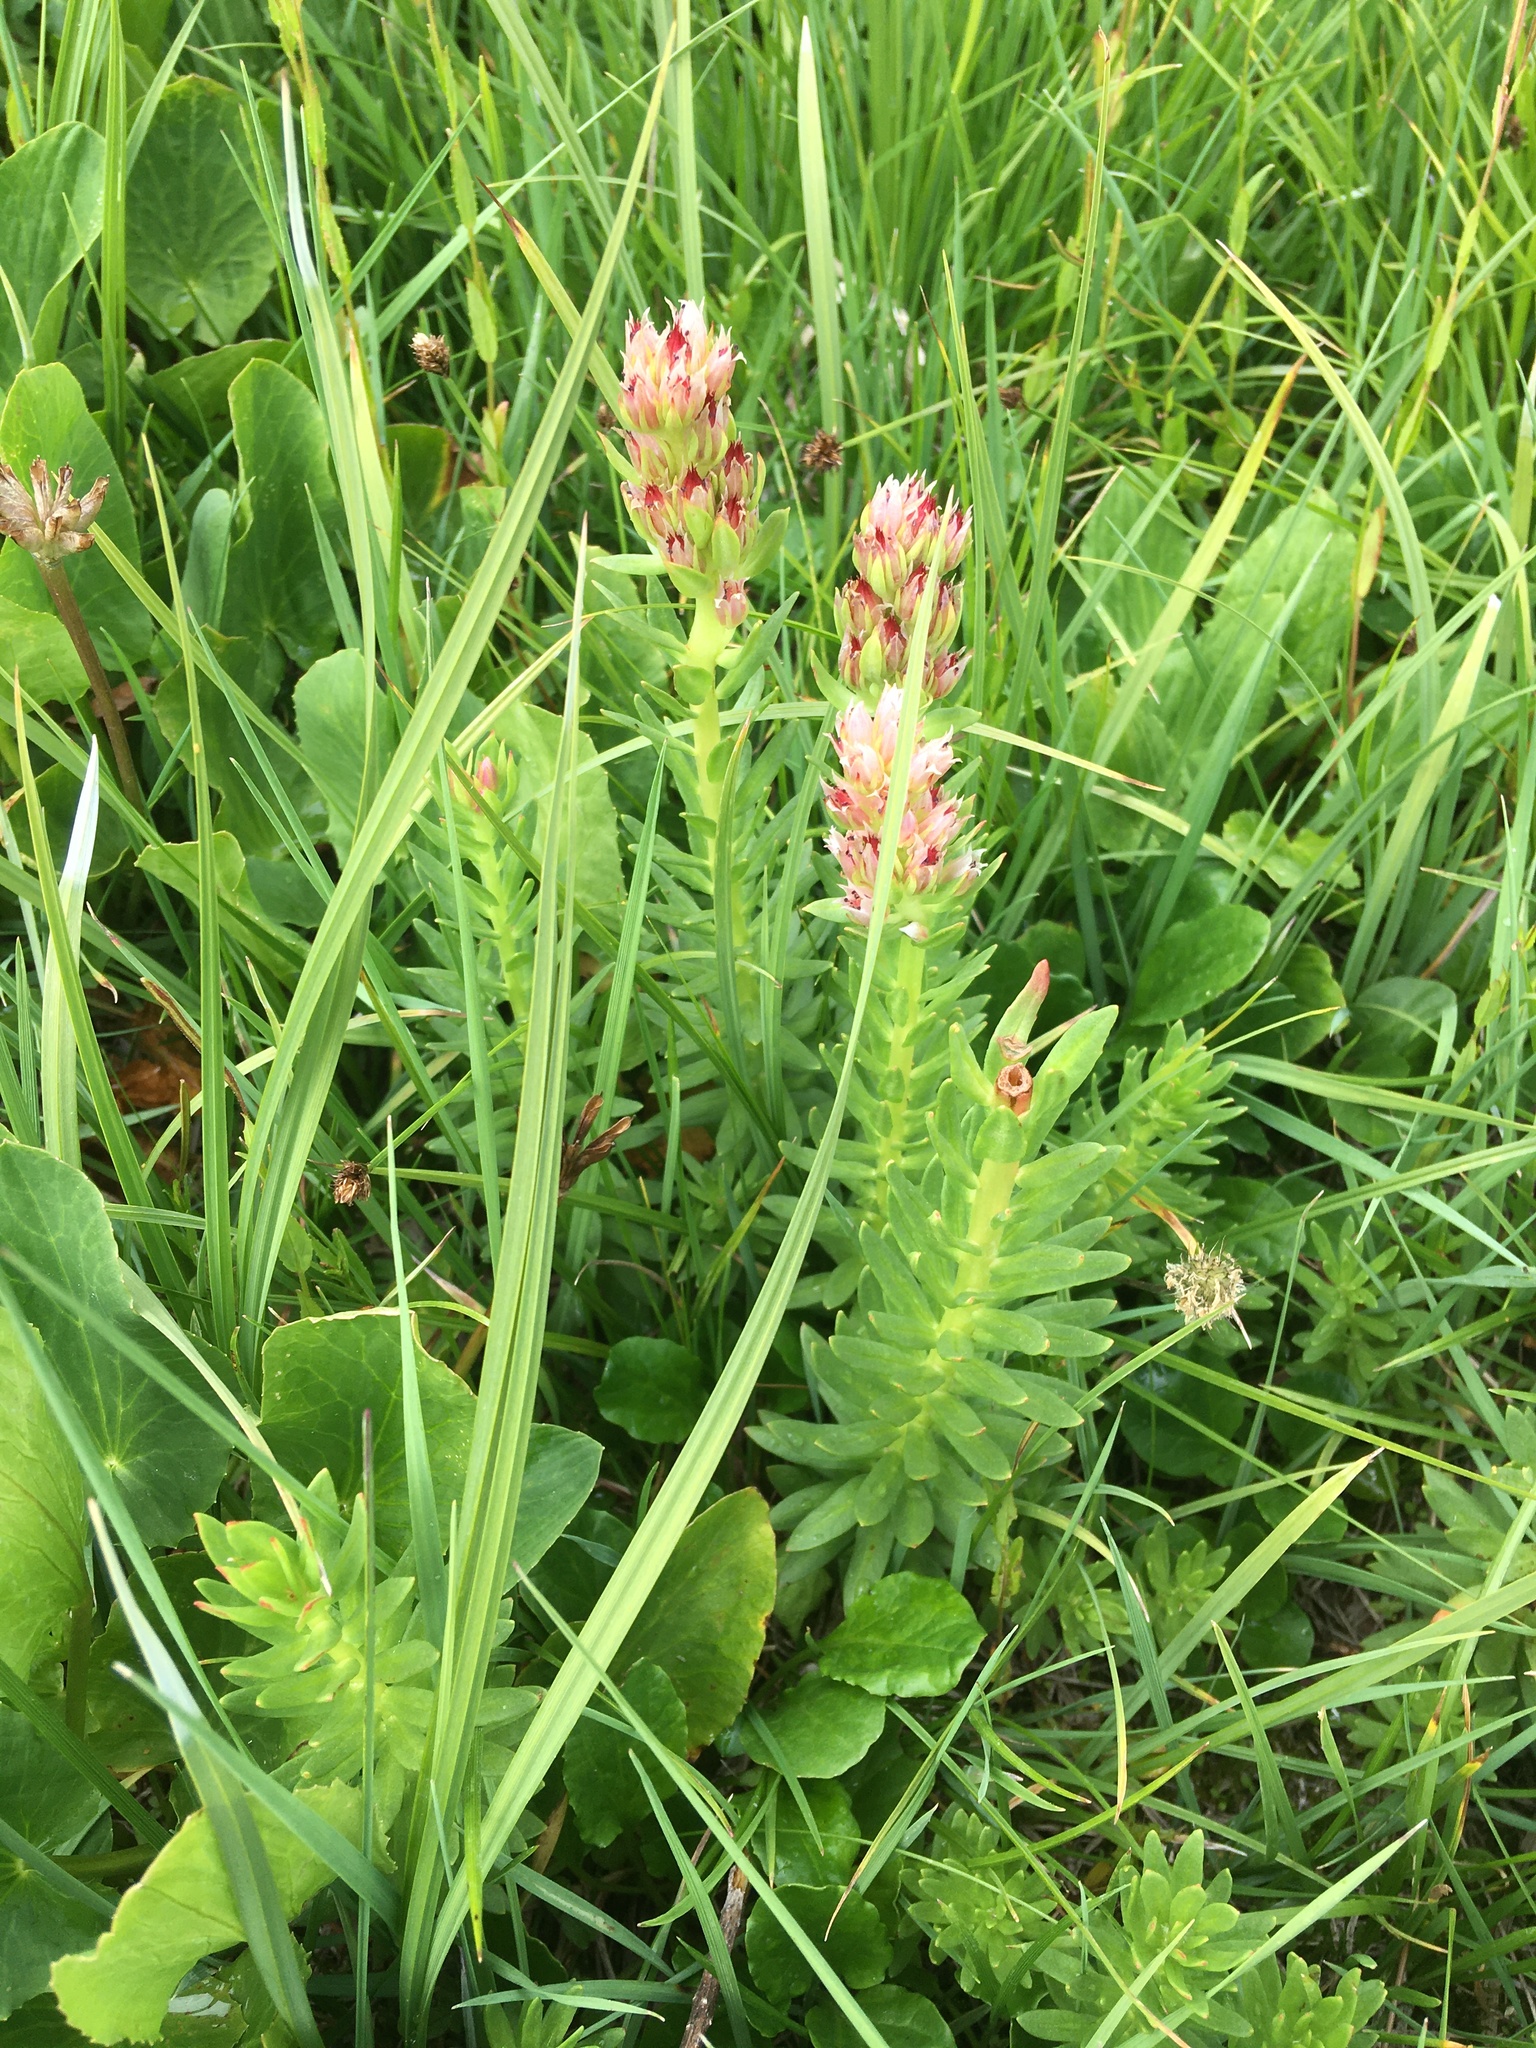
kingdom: Plantae
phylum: Tracheophyta
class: Magnoliopsida
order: Saxifragales
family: Crassulaceae
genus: Rhodiola
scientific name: Rhodiola rhodantha
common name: Red orpine
